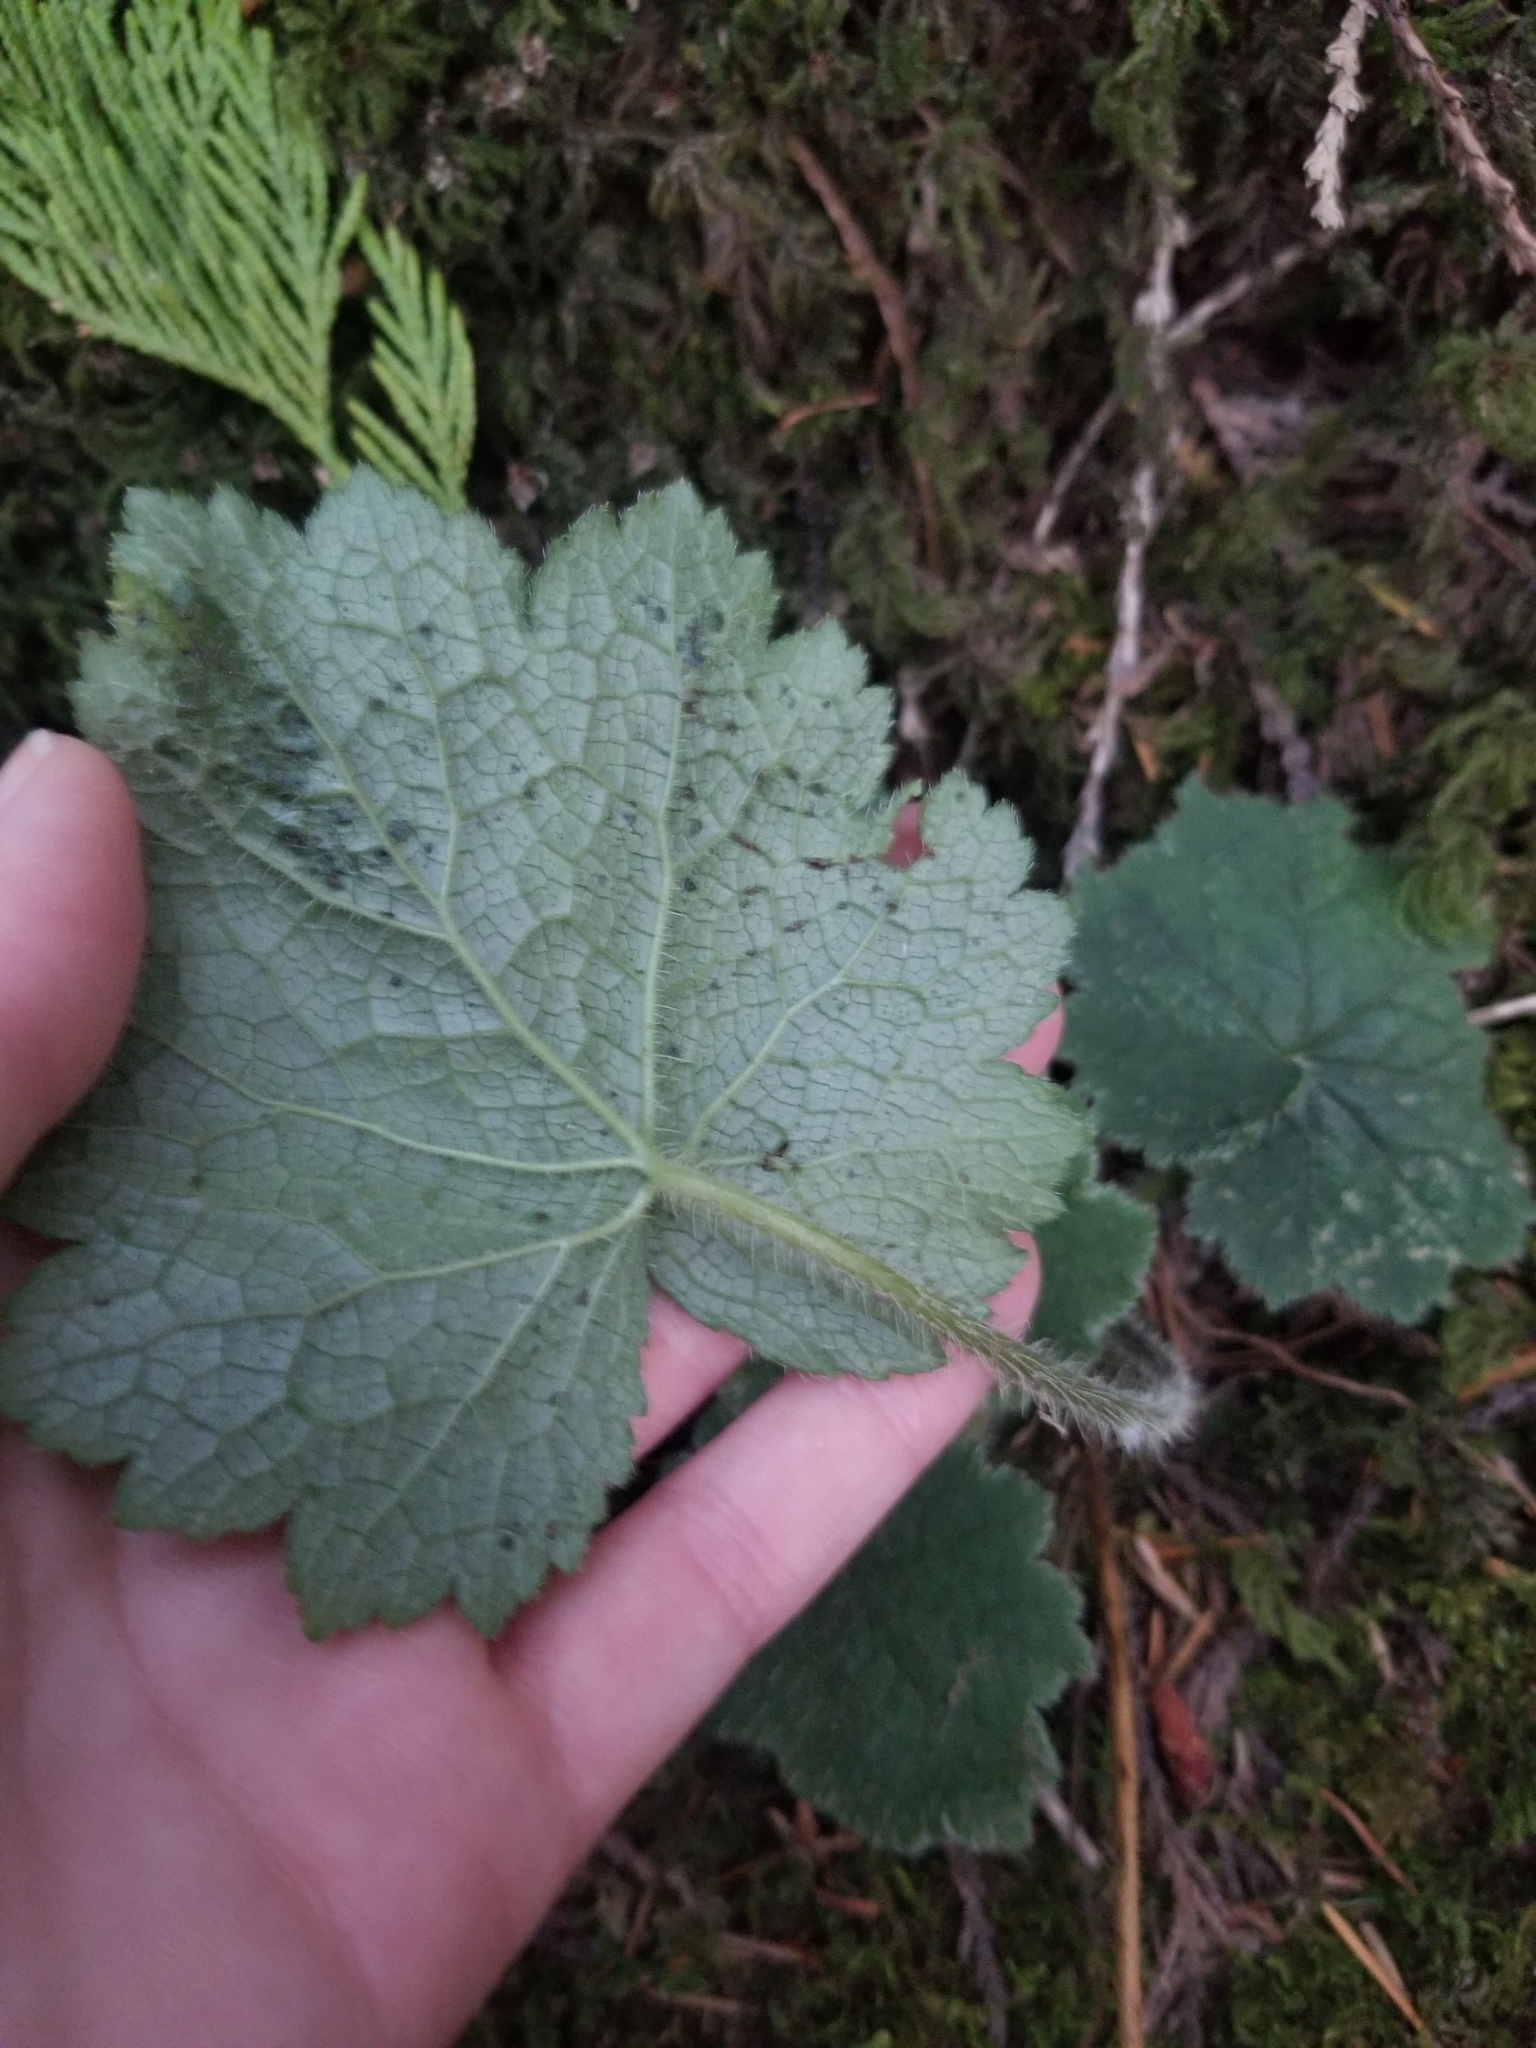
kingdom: Plantae
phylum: Tracheophyta
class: Magnoliopsida
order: Saxifragales
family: Saxifragaceae
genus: Tolmiea
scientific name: Tolmiea menziesii
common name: Pick-a-back-plant
